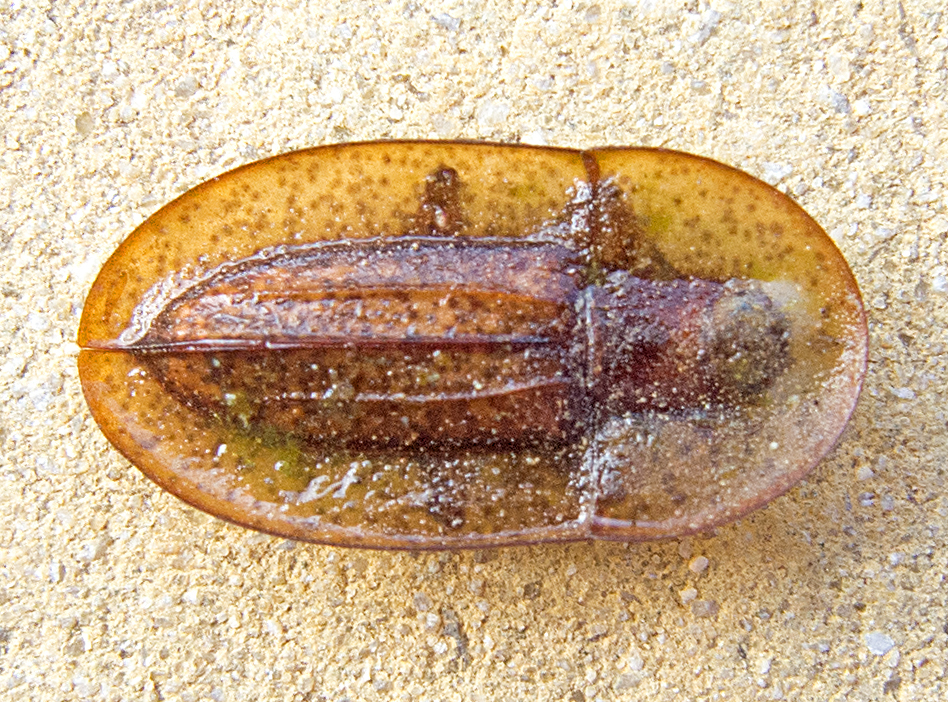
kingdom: Animalia
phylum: Arthropoda
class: Insecta
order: Coleoptera
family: Tenebrionidae
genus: Cossyphus
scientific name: Cossyphus tauricus
